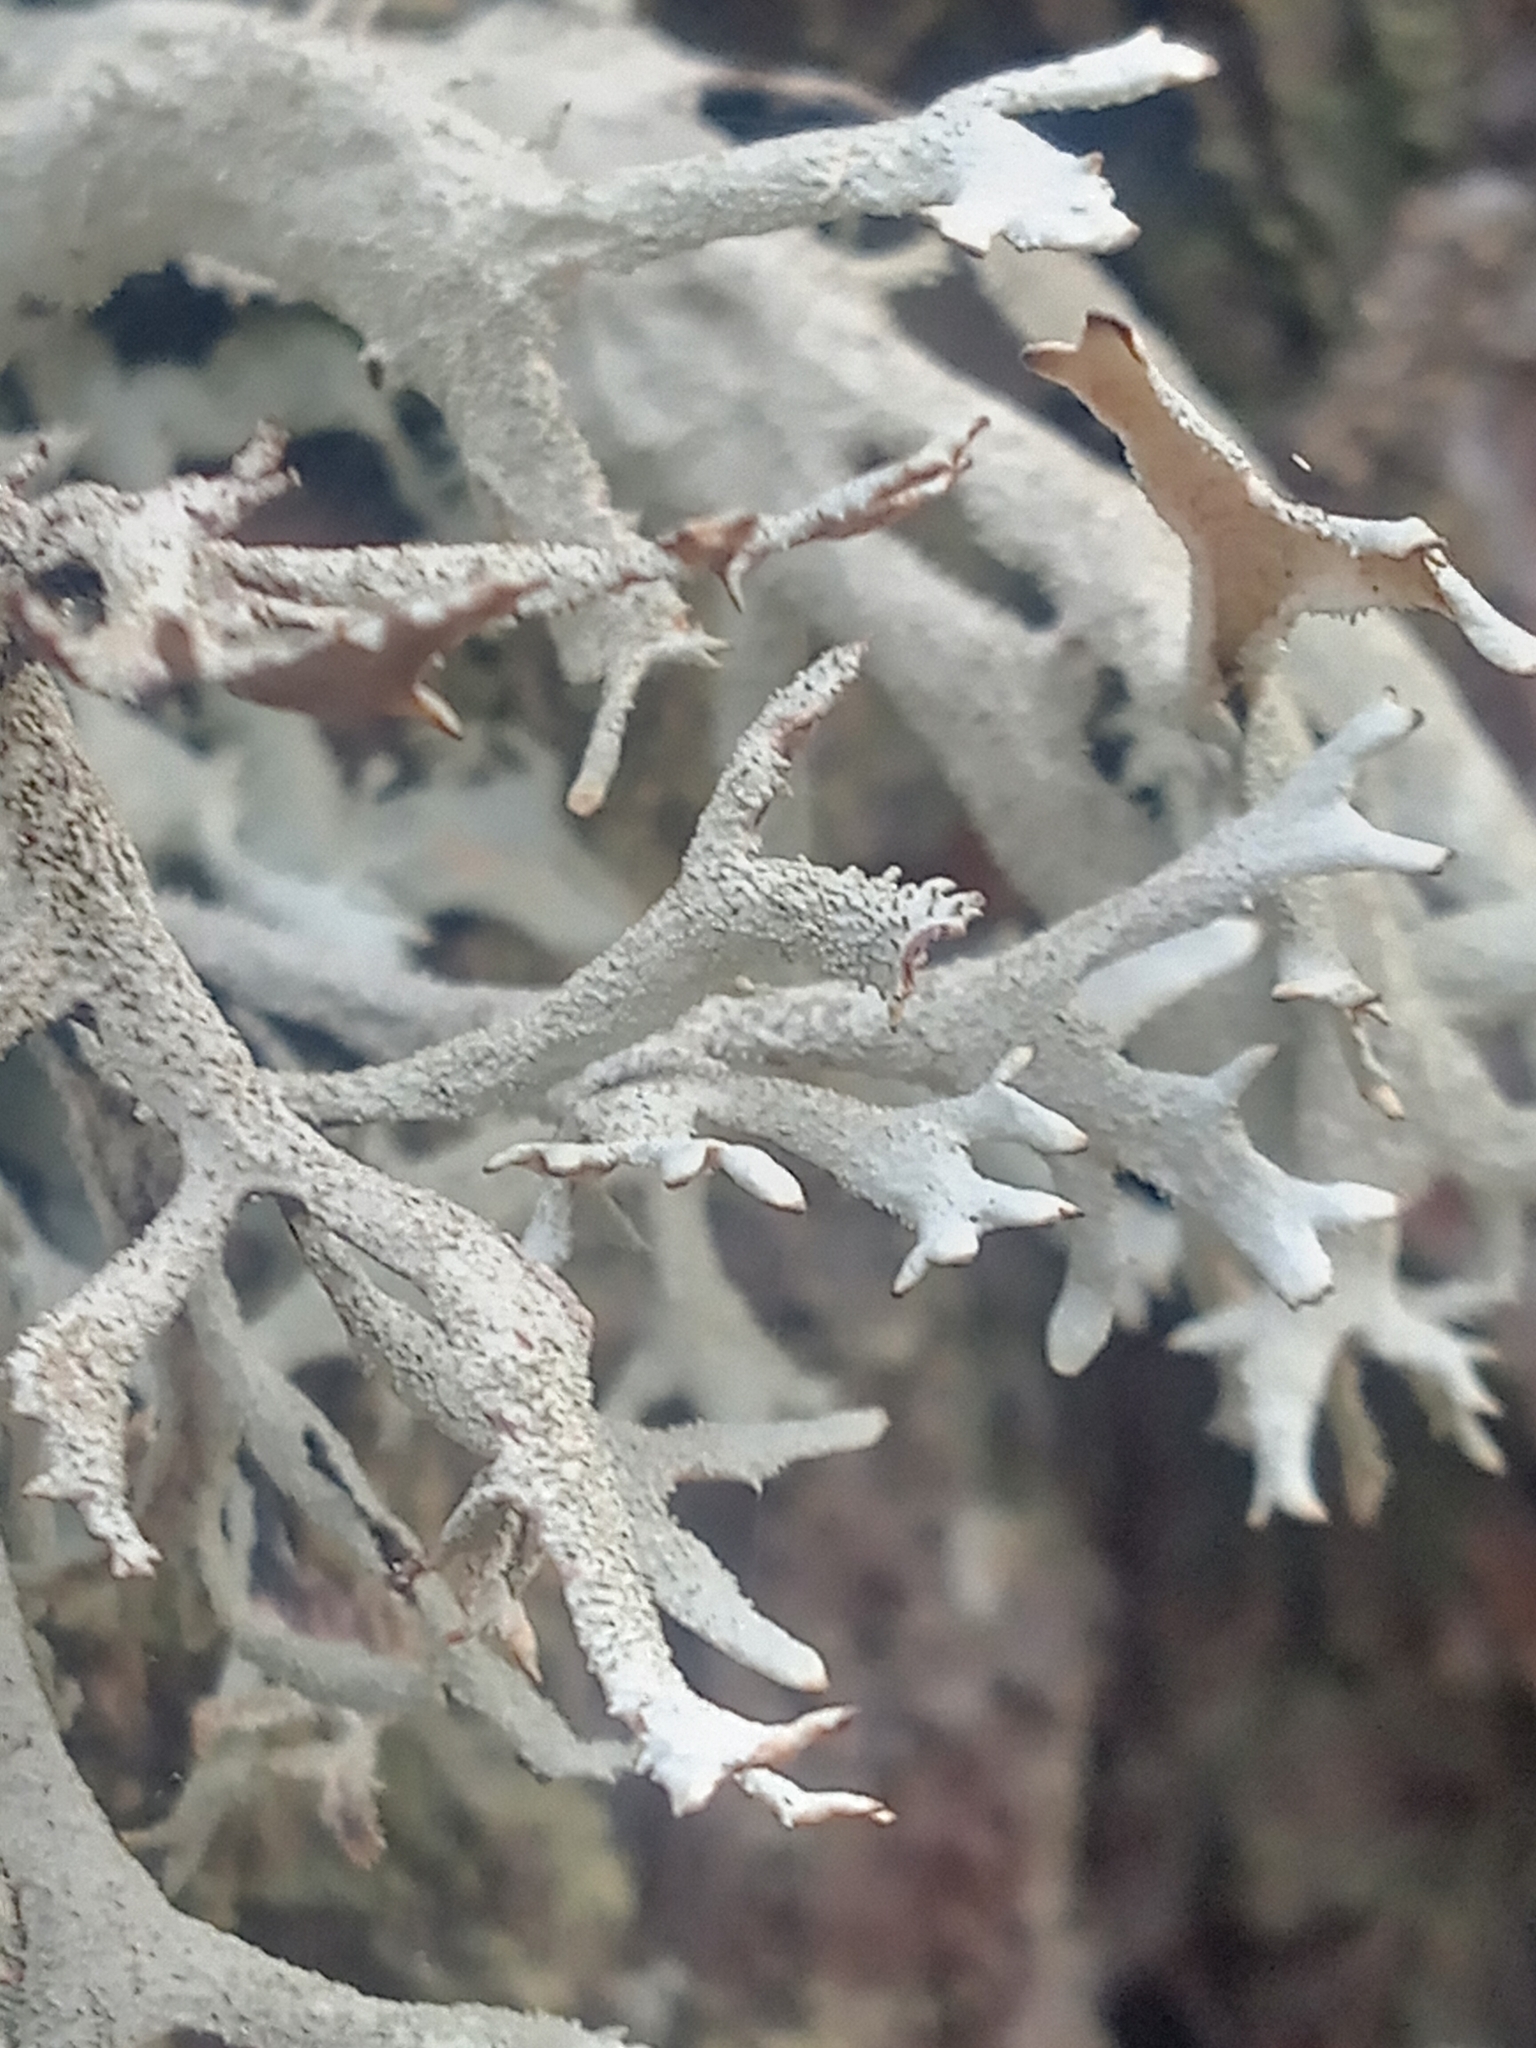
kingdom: Fungi
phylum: Ascomycota
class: Lecanoromycetes
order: Lecanorales
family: Parmeliaceae
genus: Pseudevernia
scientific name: Pseudevernia furfuracea
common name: Tree moss
